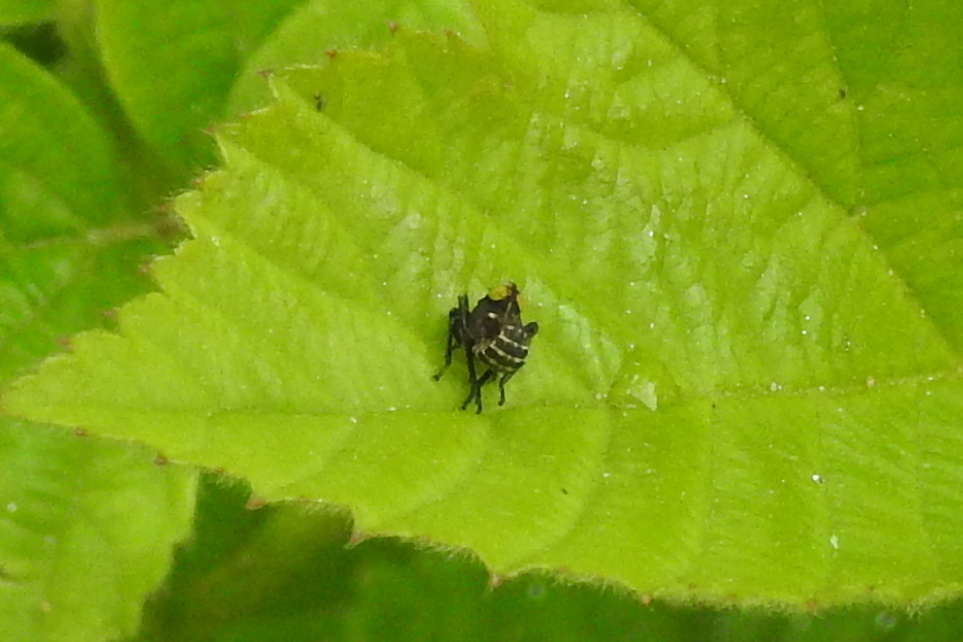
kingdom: Animalia
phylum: Arthropoda
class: Insecta
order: Hemiptera
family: Cicadellidae
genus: Jikradia
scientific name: Jikradia olitoria
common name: Coppery leafhopper
